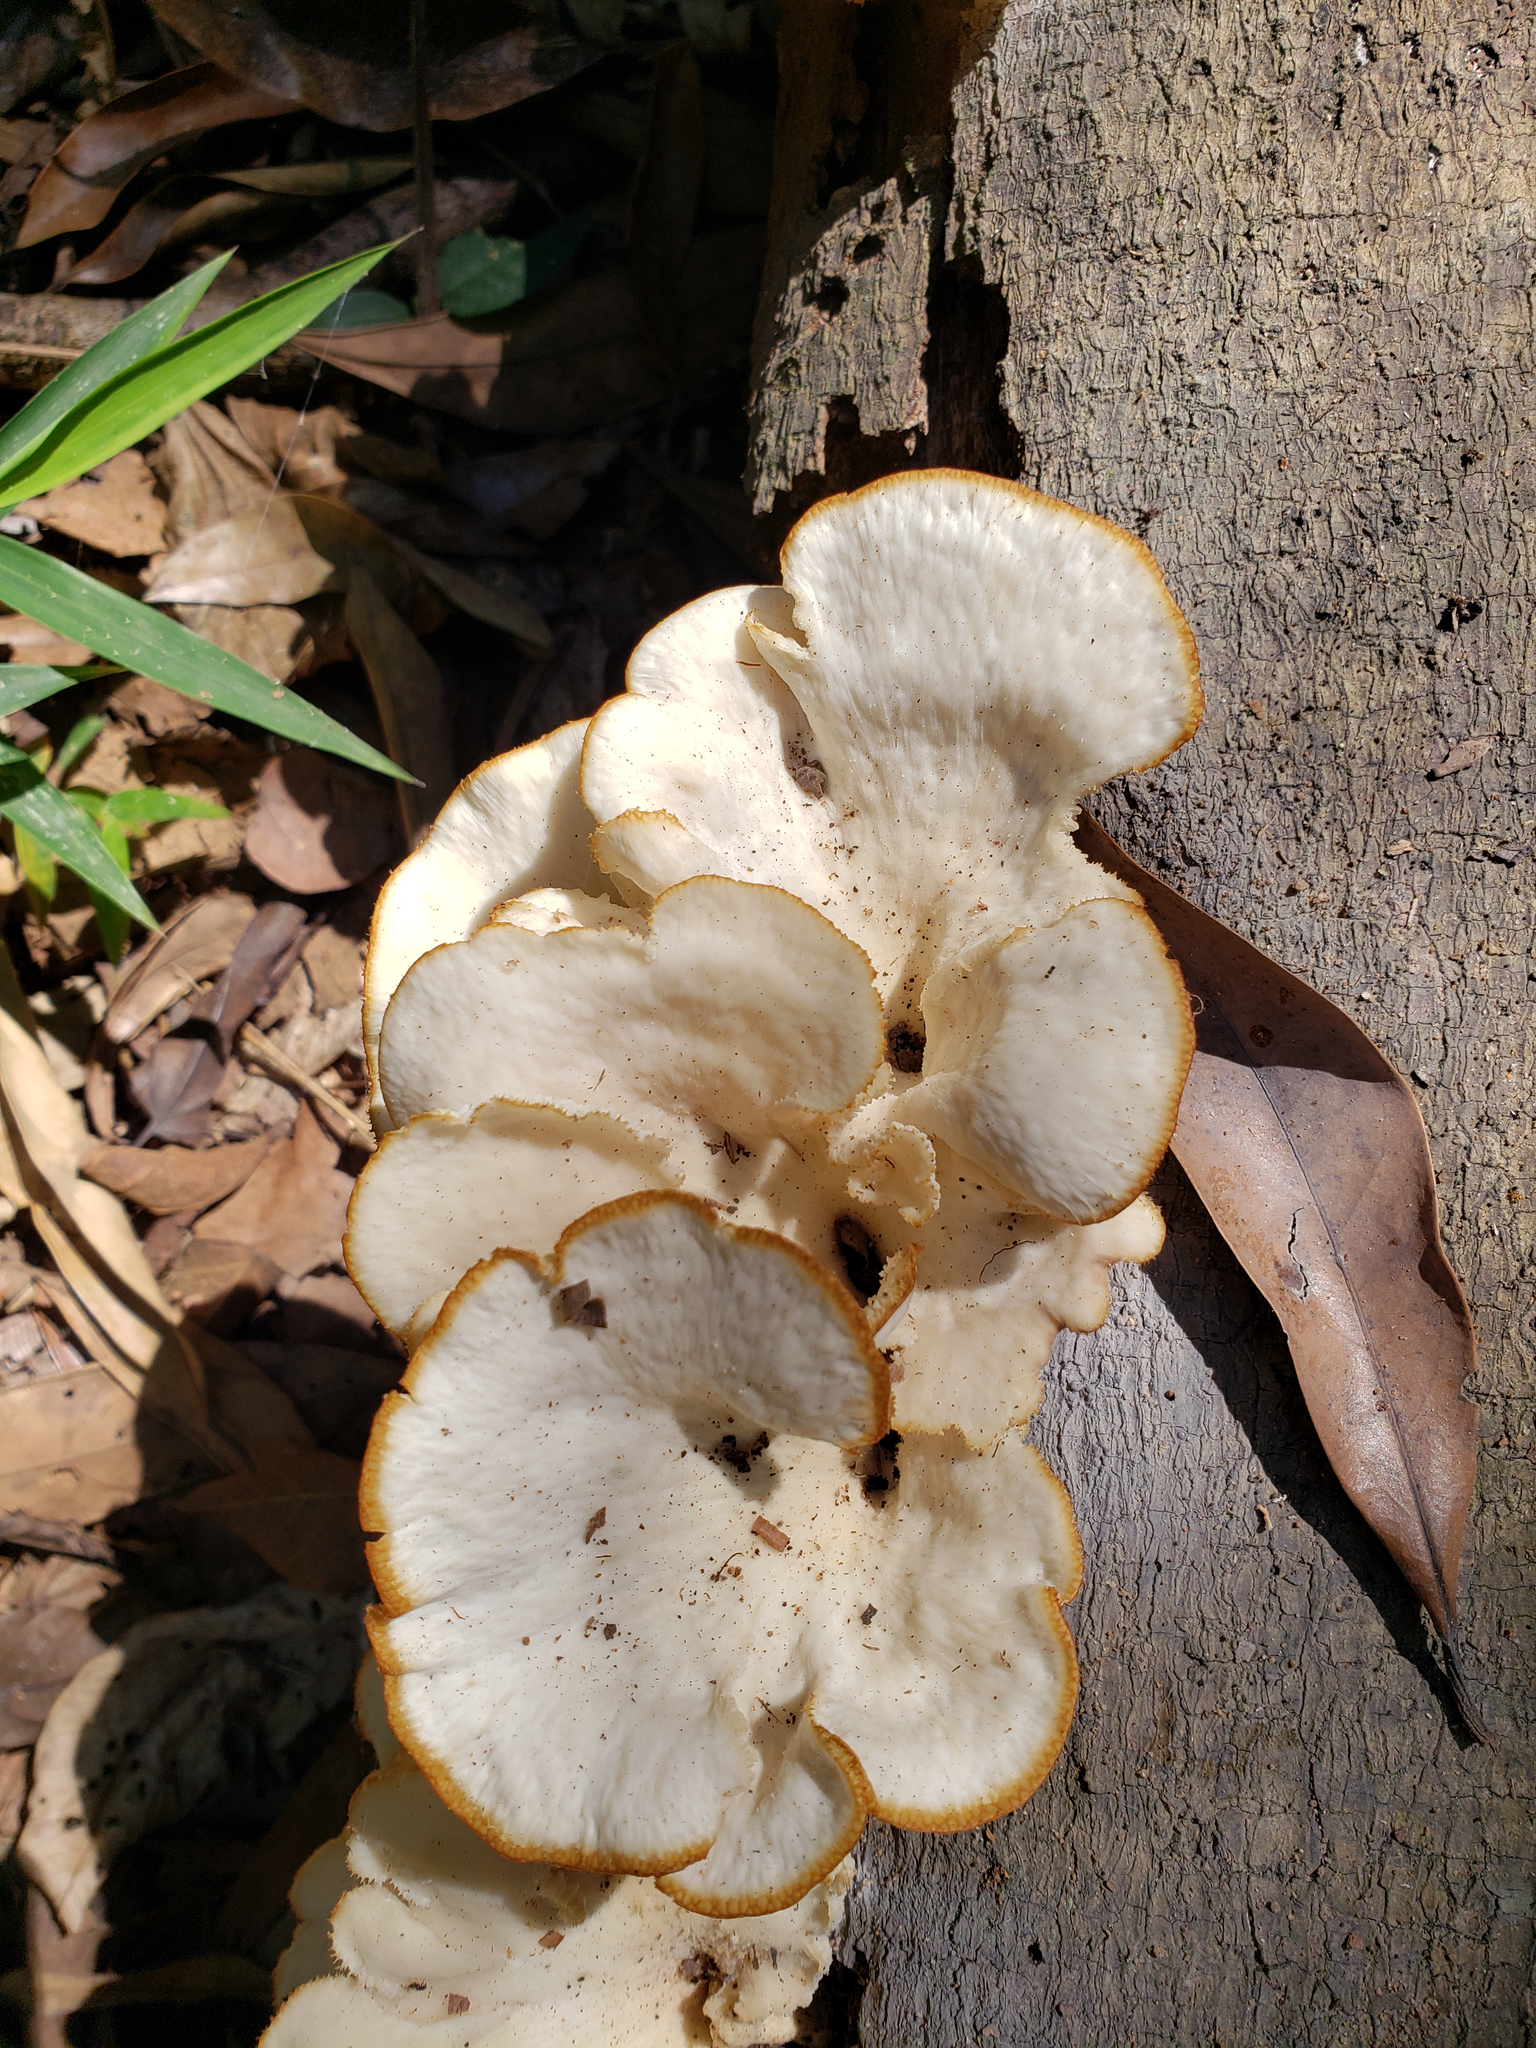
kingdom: Fungi
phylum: Basidiomycota
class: Agaricomycetes
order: Polyporales
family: Polyporaceae
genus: Favolus
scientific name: Favolus tenuiculus
